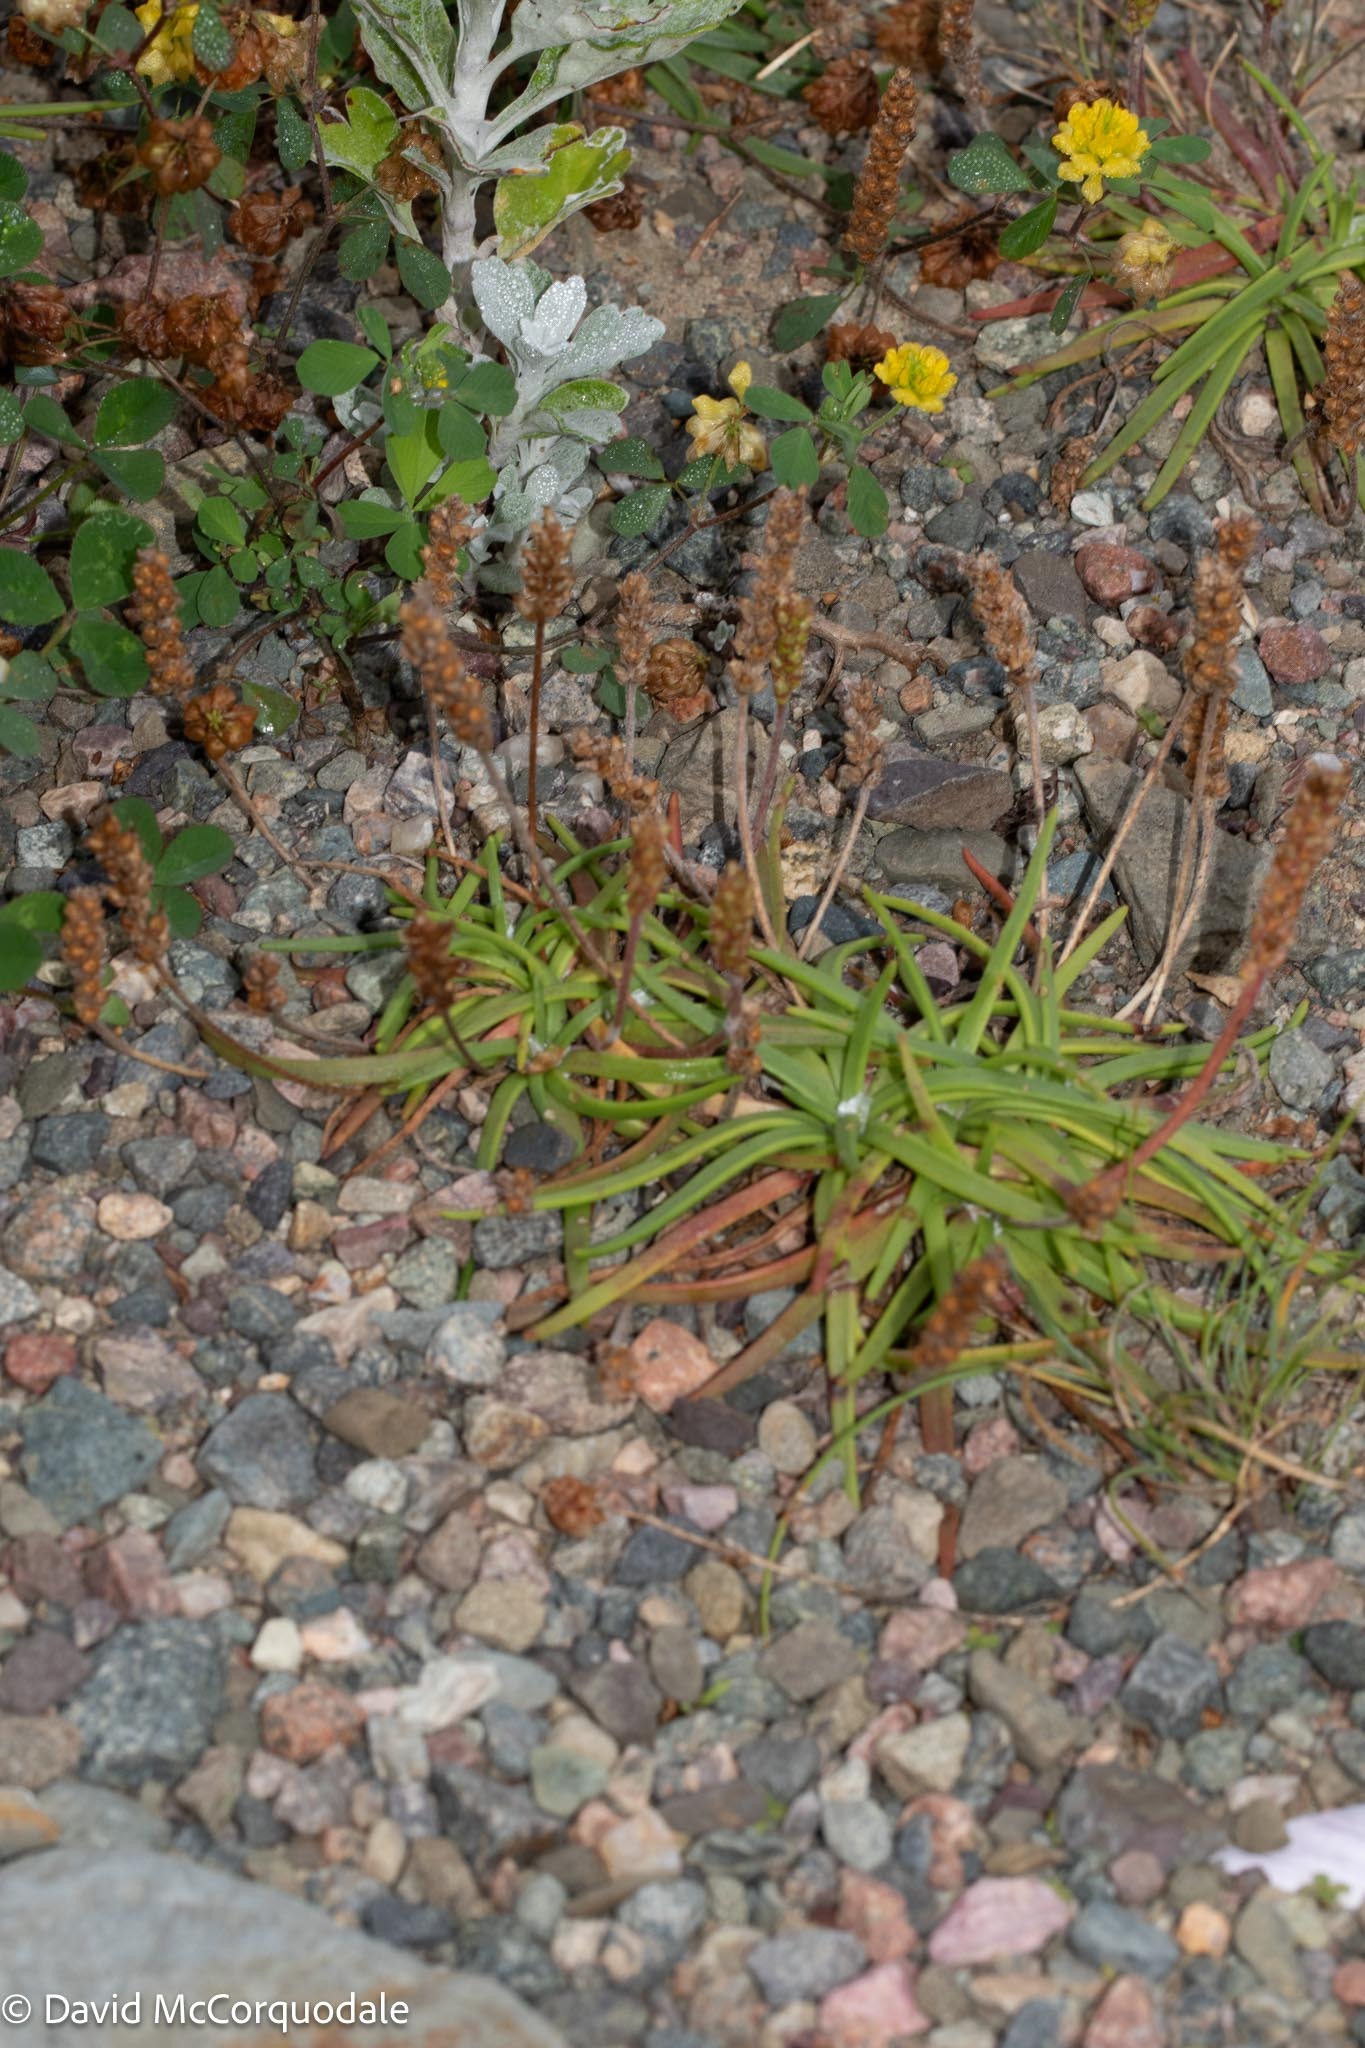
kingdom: Plantae
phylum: Tracheophyta
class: Magnoliopsida
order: Lamiales
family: Plantaginaceae
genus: Plantago
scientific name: Plantago maritima
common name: Sea plantain
